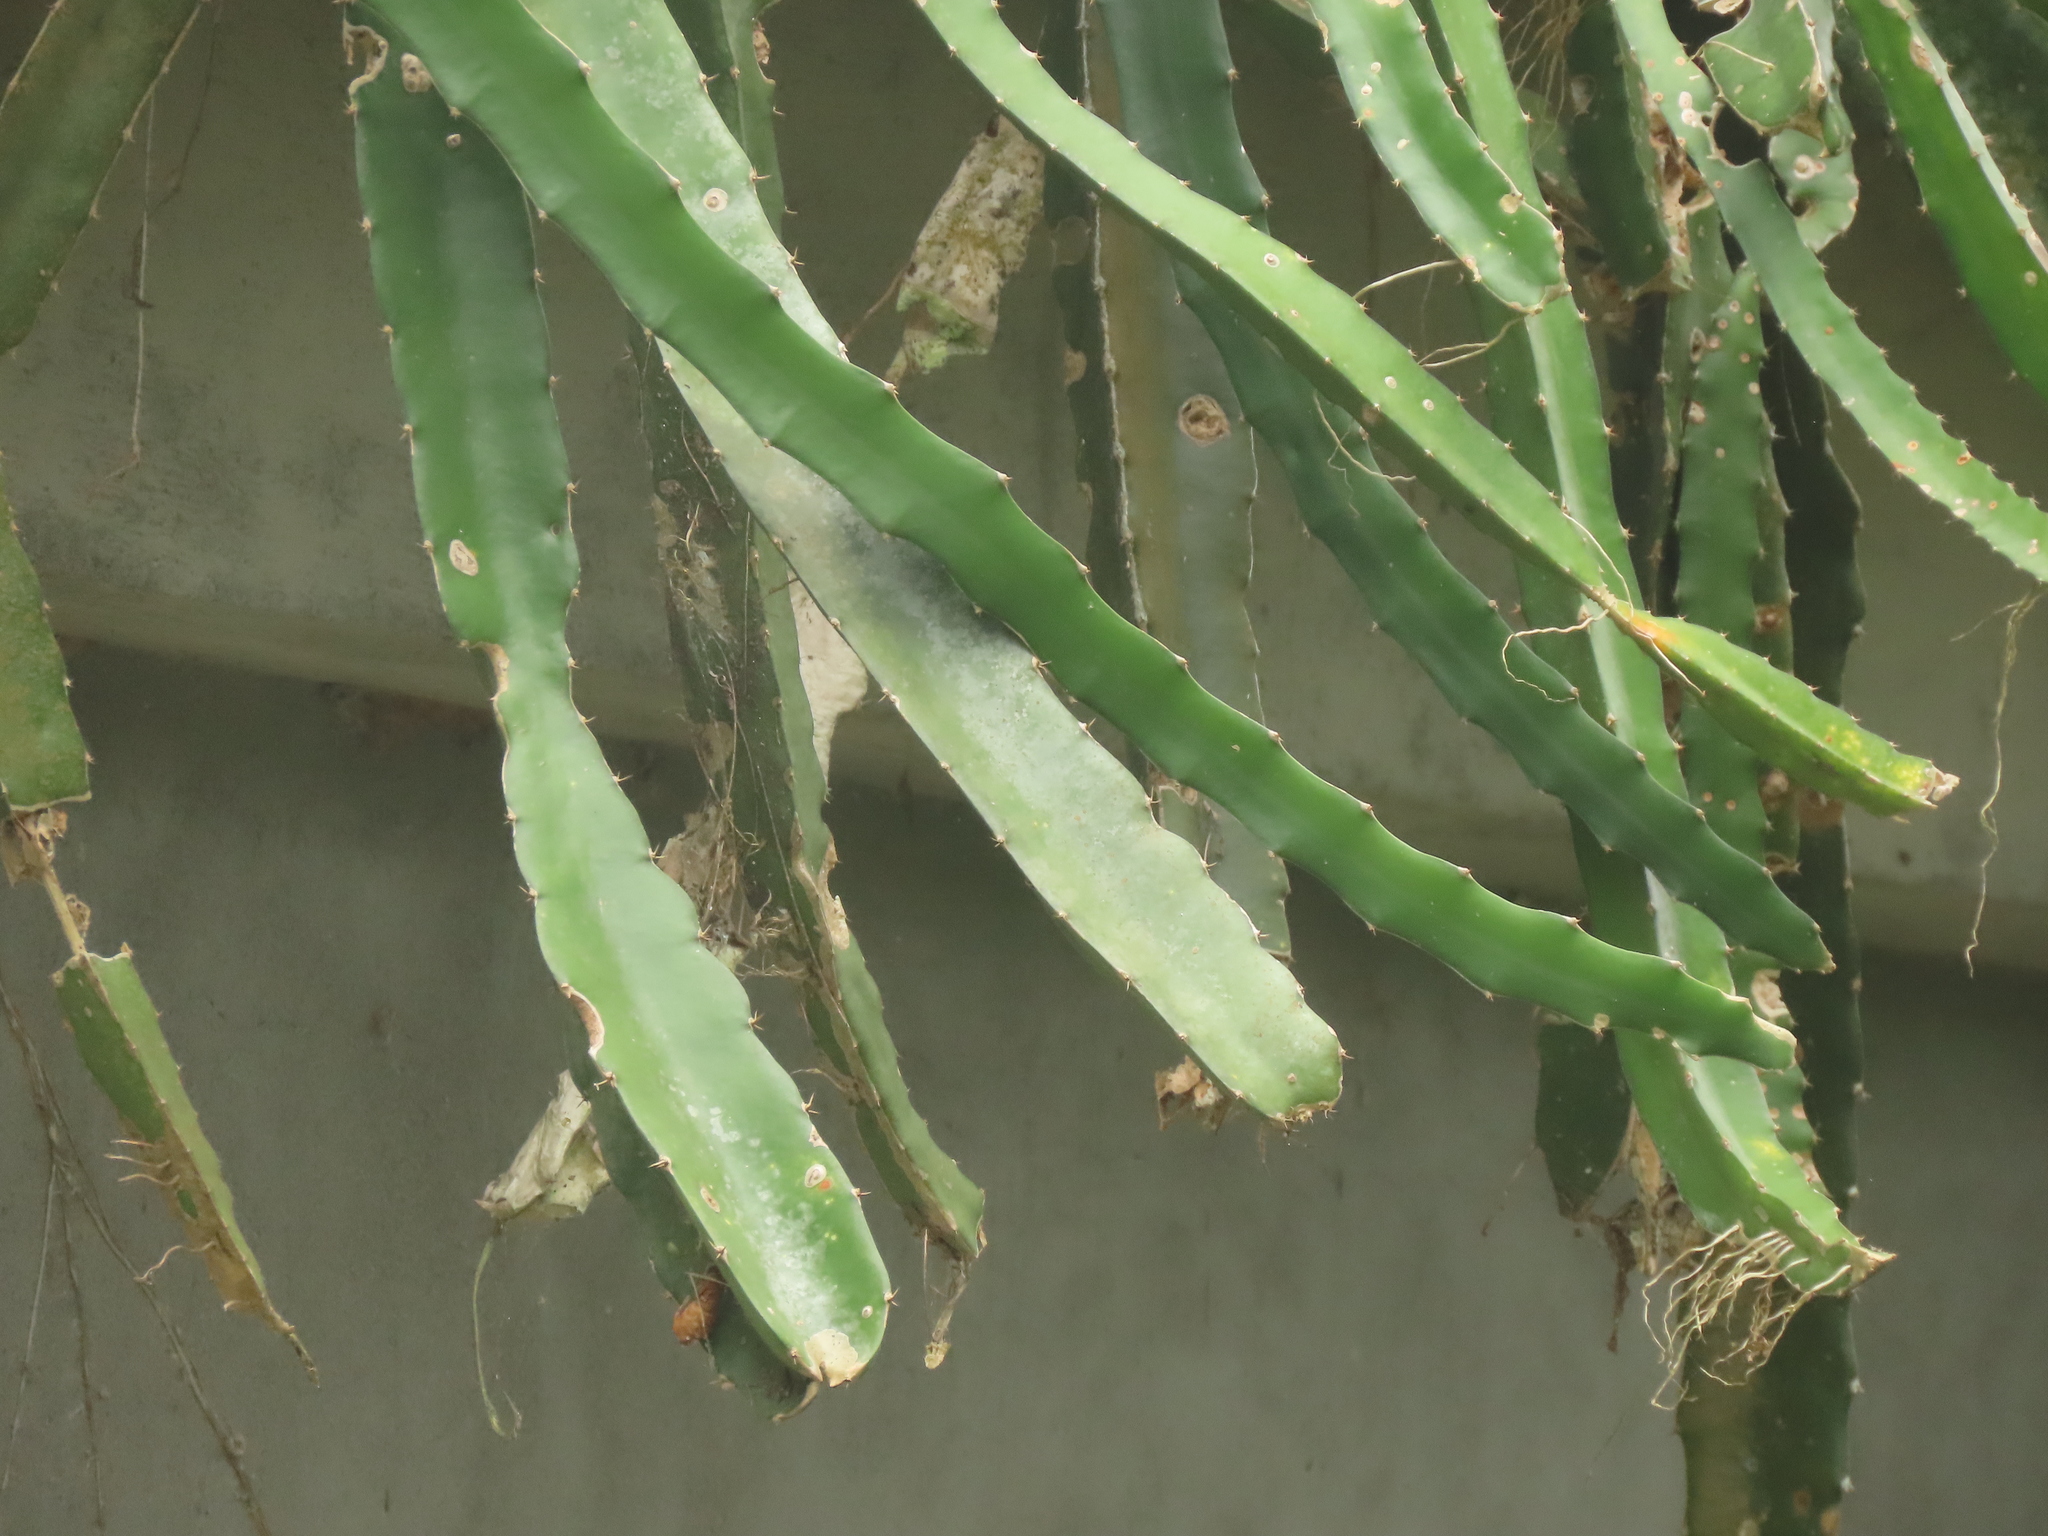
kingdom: Plantae
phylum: Tracheophyta
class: Magnoliopsida
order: Caryophyllales
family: Cactaceae
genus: Selenicereus
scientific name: Selenicereus undatus
